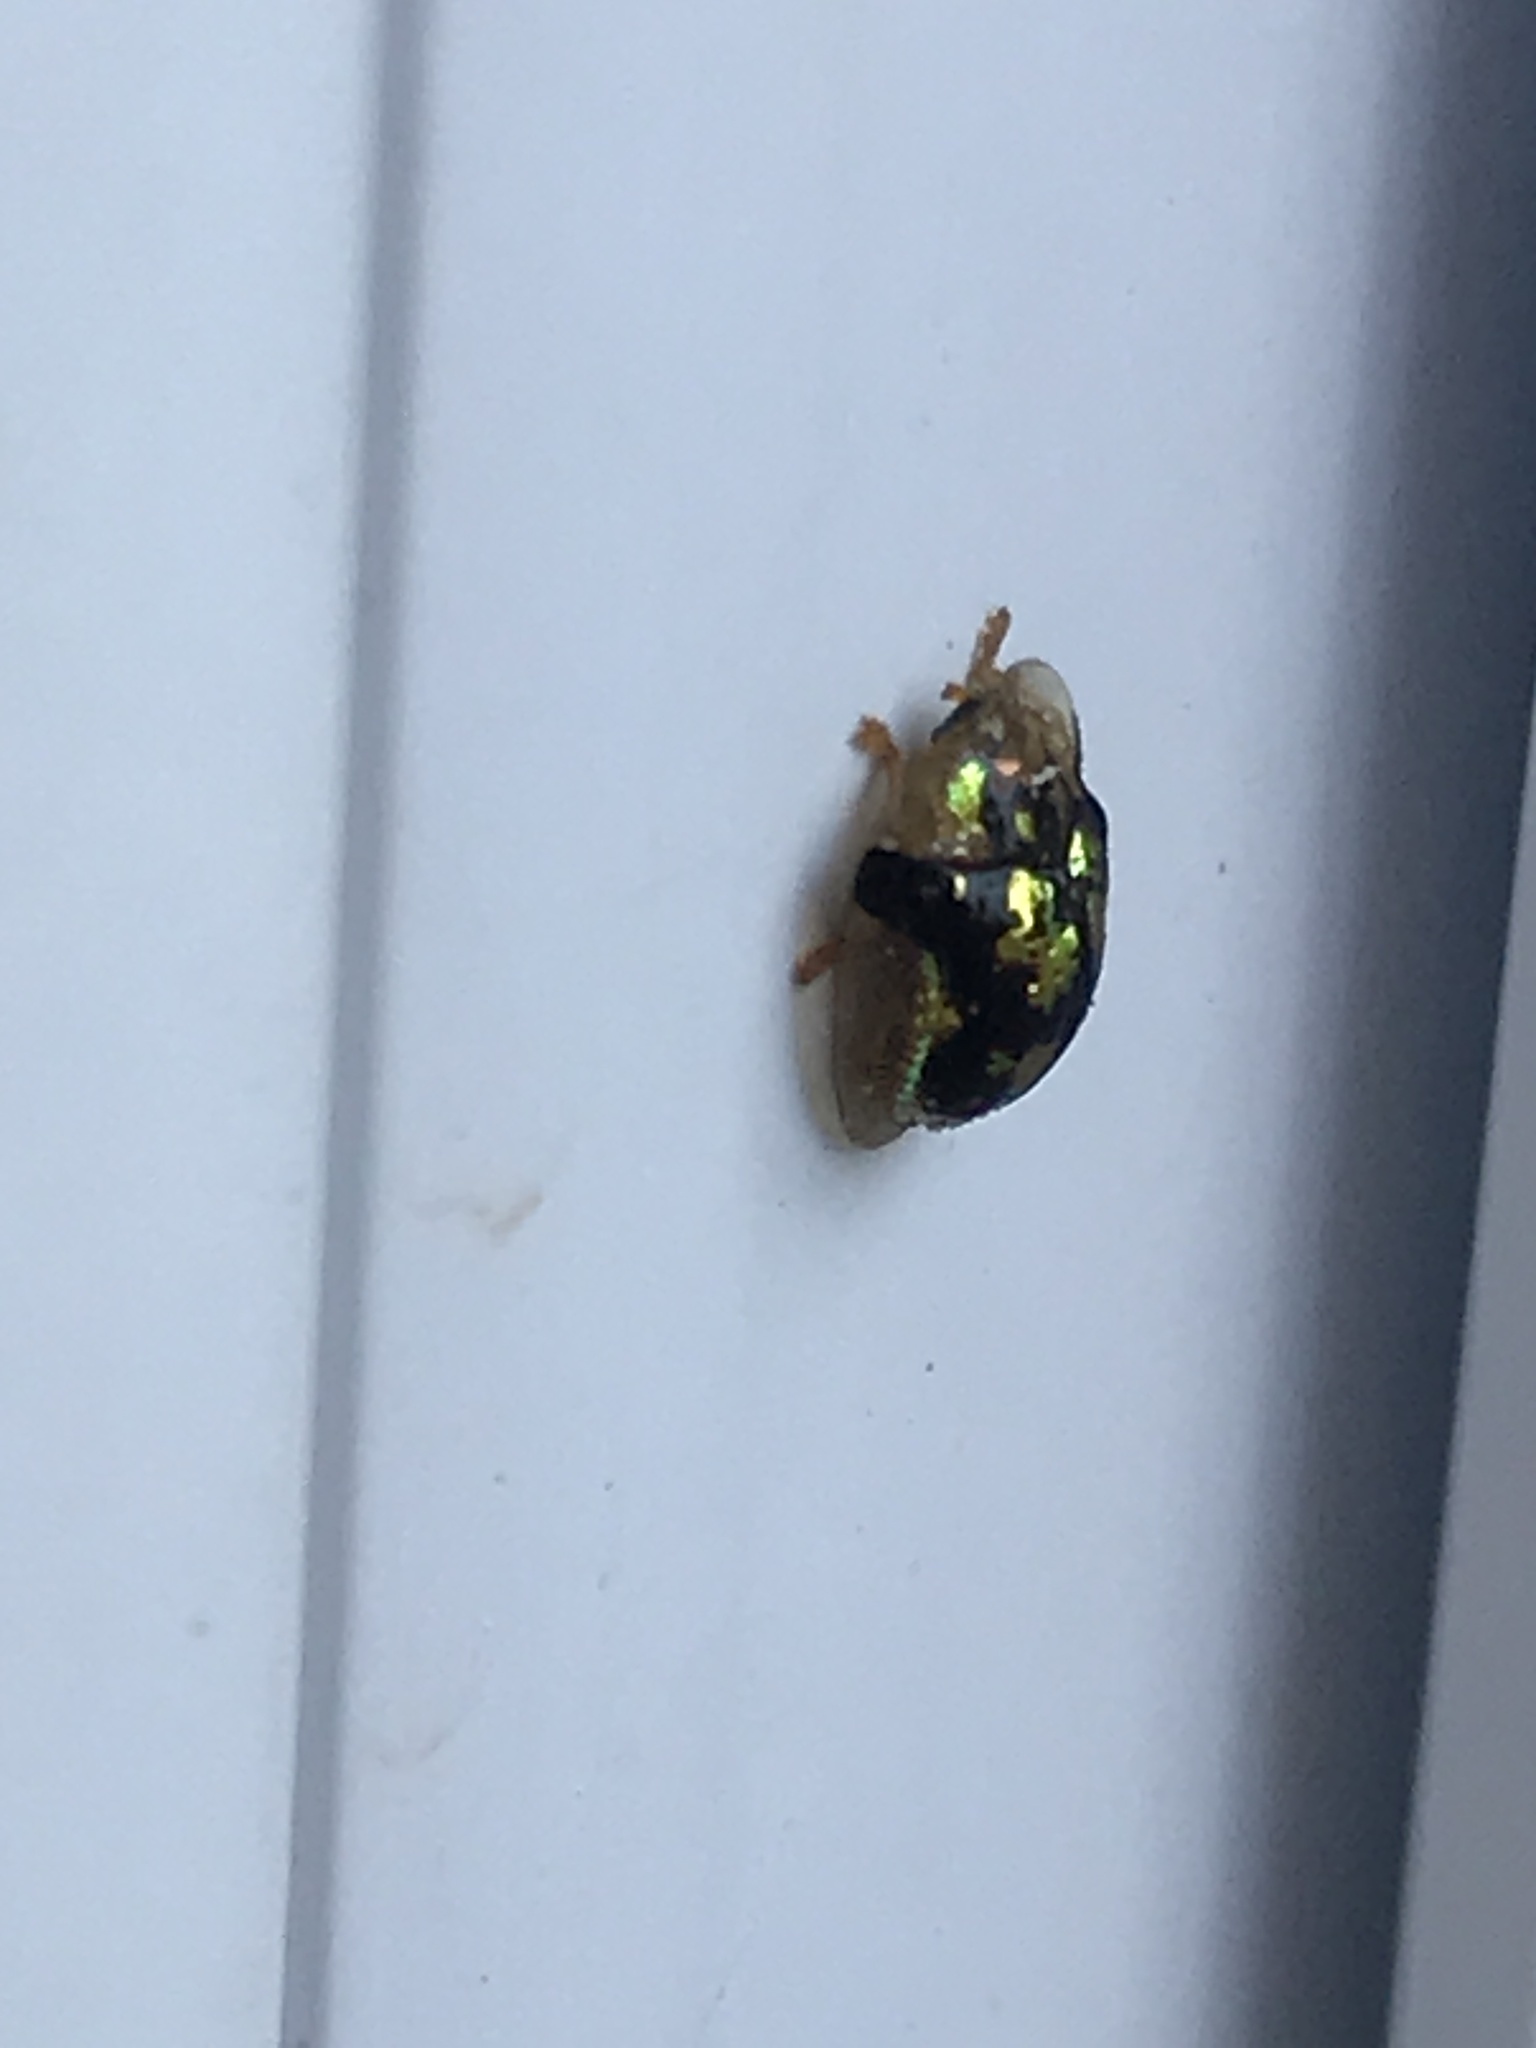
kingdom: Animalia
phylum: Arthropoda
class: Insecta
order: Coleoptera
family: Chrysomelidae
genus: Deloyala
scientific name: Deloyala guttata
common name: Mottled tortoise beetle
